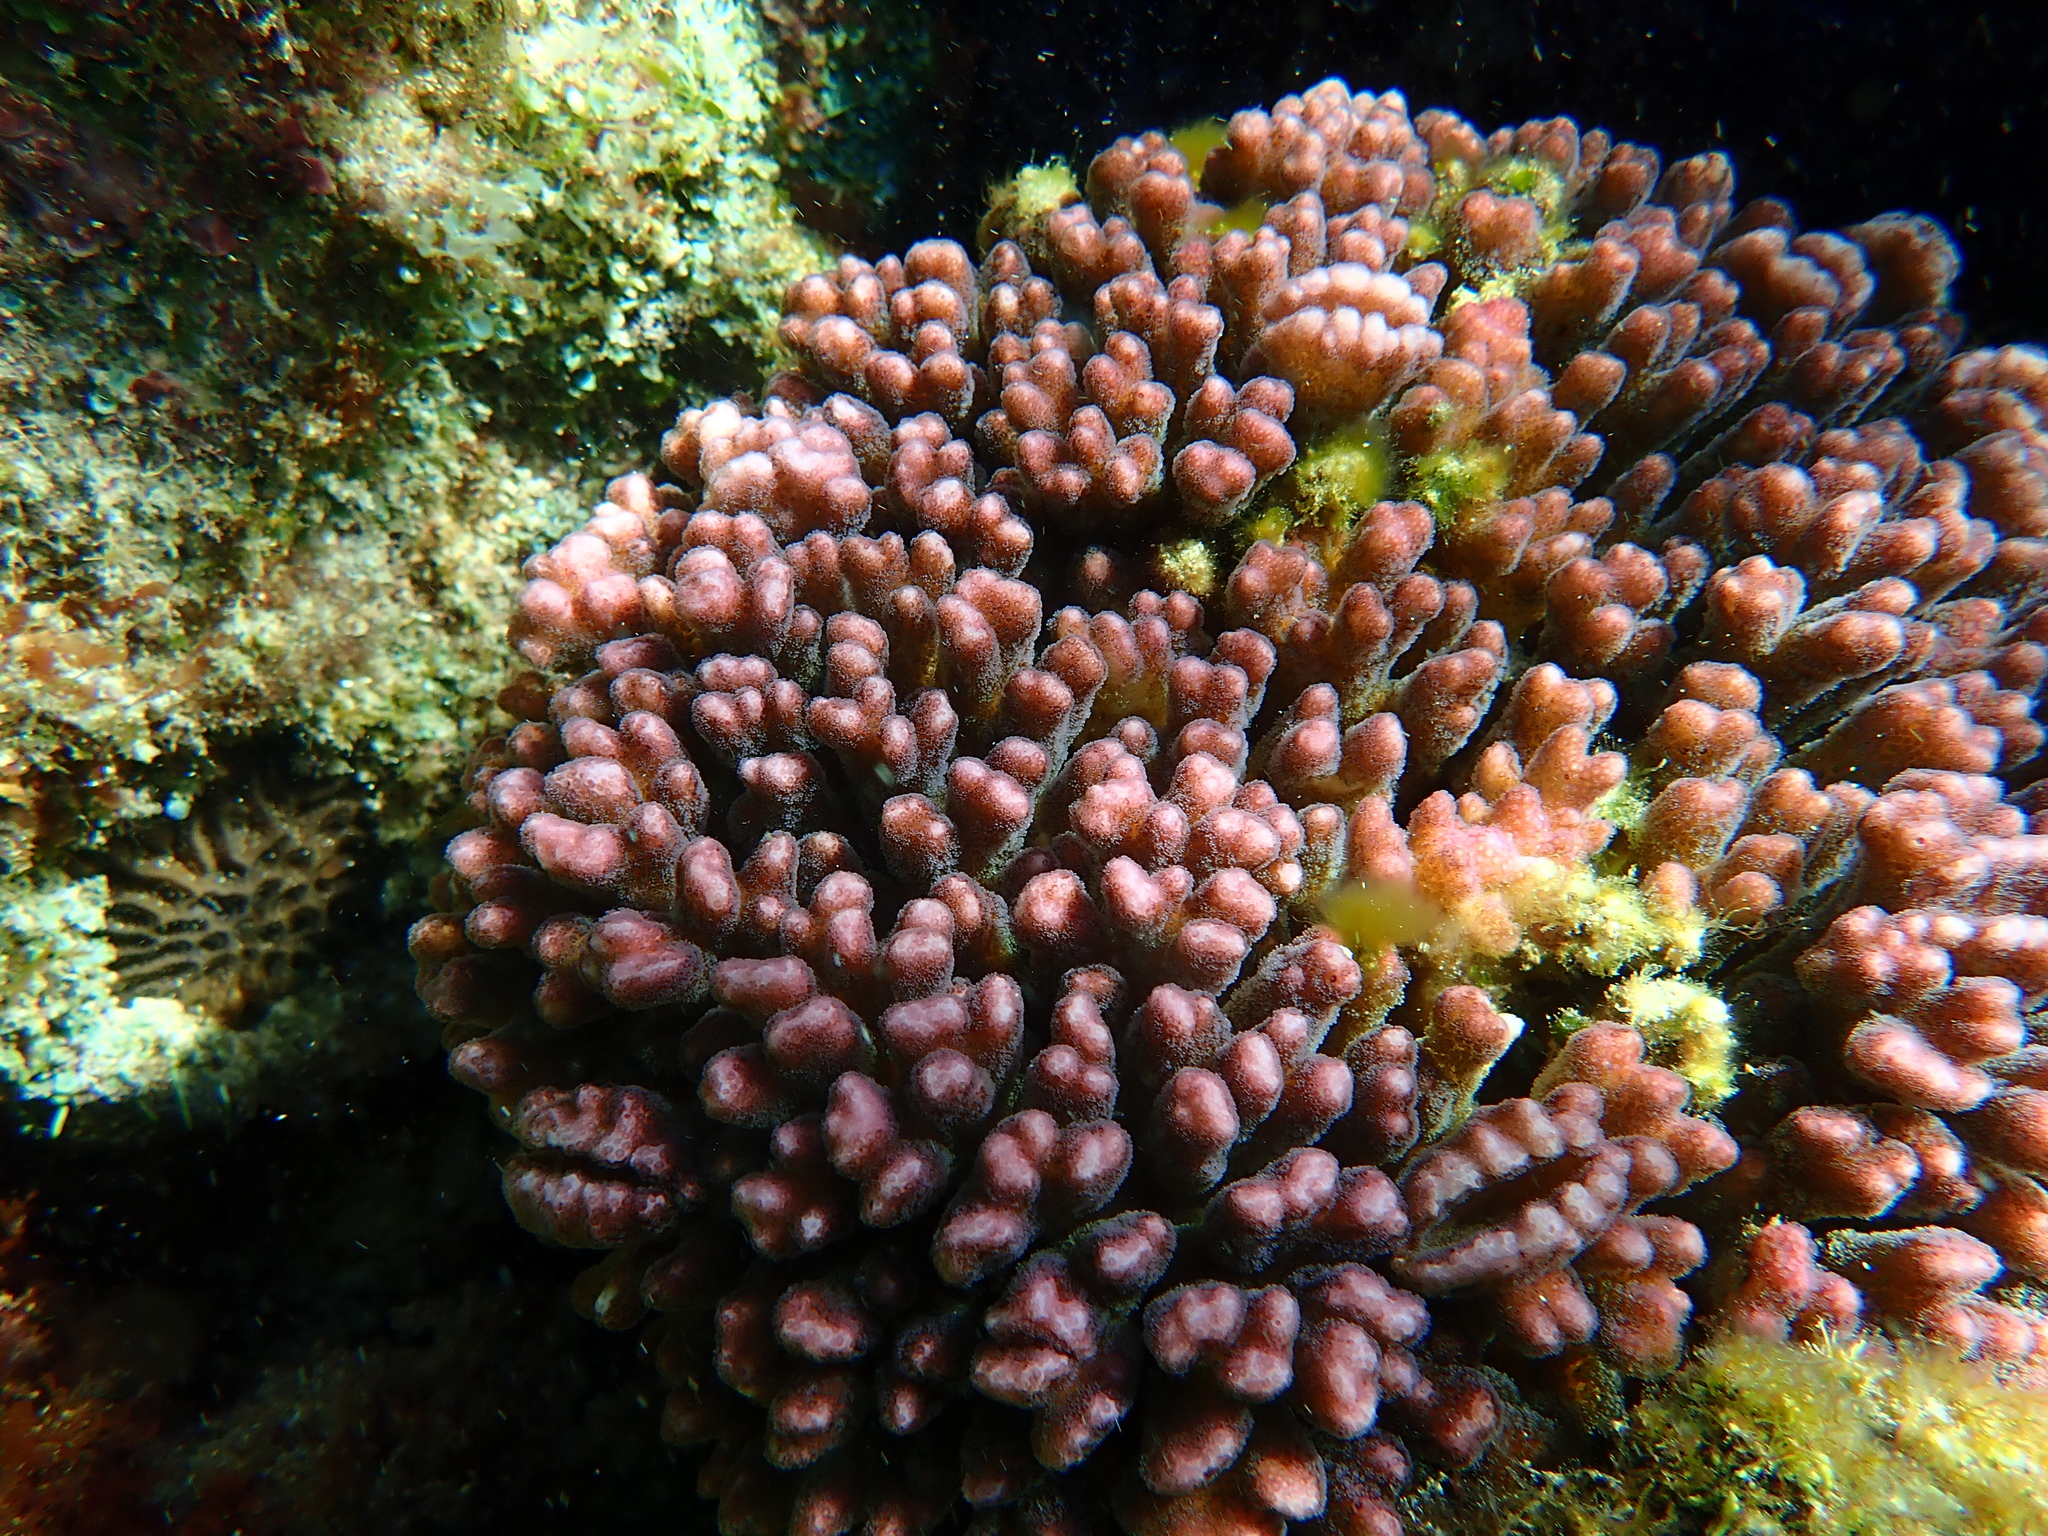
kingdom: Animalia
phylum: Cnidaria
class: Anthozoa
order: Scleractinia
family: Pocilloporidae
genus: Pocillopora
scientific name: Pocillopora damicornis
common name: Cauliflower coral
